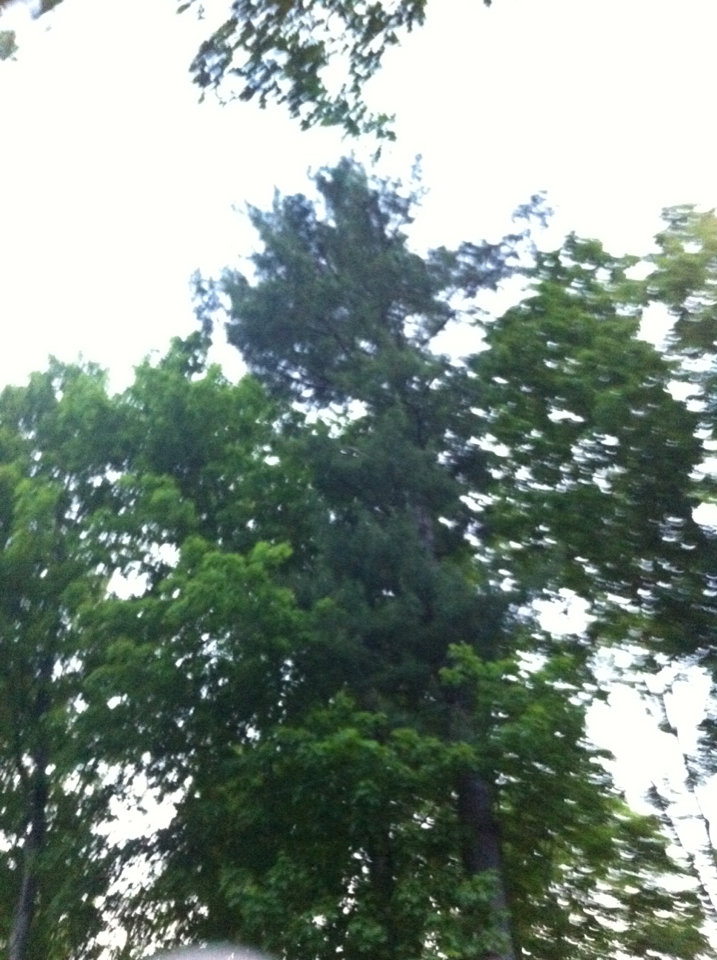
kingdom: Plantae
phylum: Tracheophyta
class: Pinopsida
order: Pinales
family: Pinaceae
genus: Pinus
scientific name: Pinus strobus
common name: Weymouth pine
